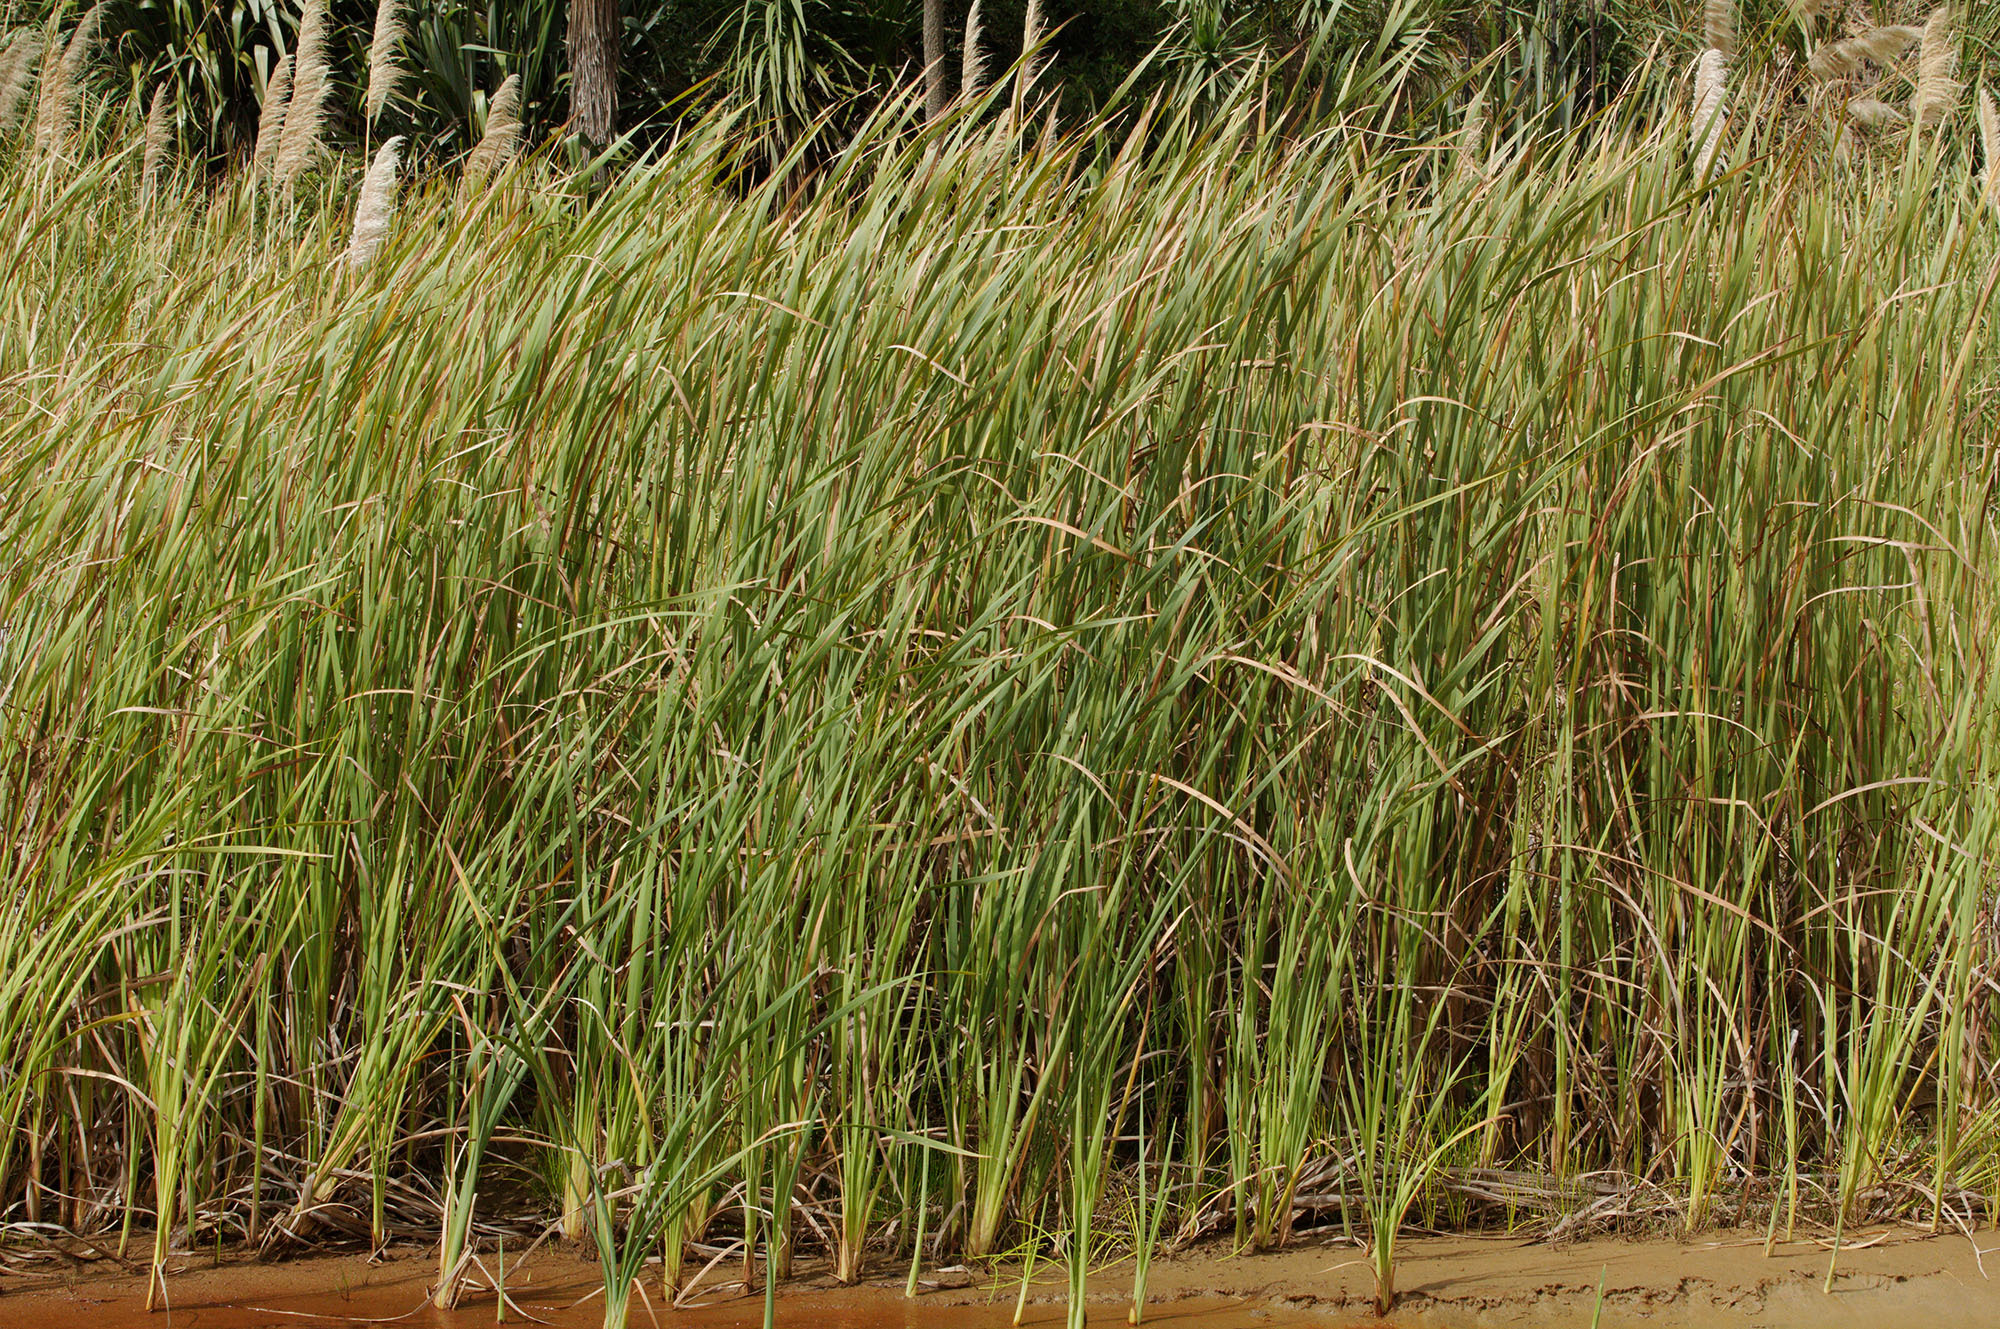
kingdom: Plantae
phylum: Tracheophyta
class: Liliopsida
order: Poales
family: Typhaceae
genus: Typha
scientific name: Typha orientalis
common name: Bullrush
